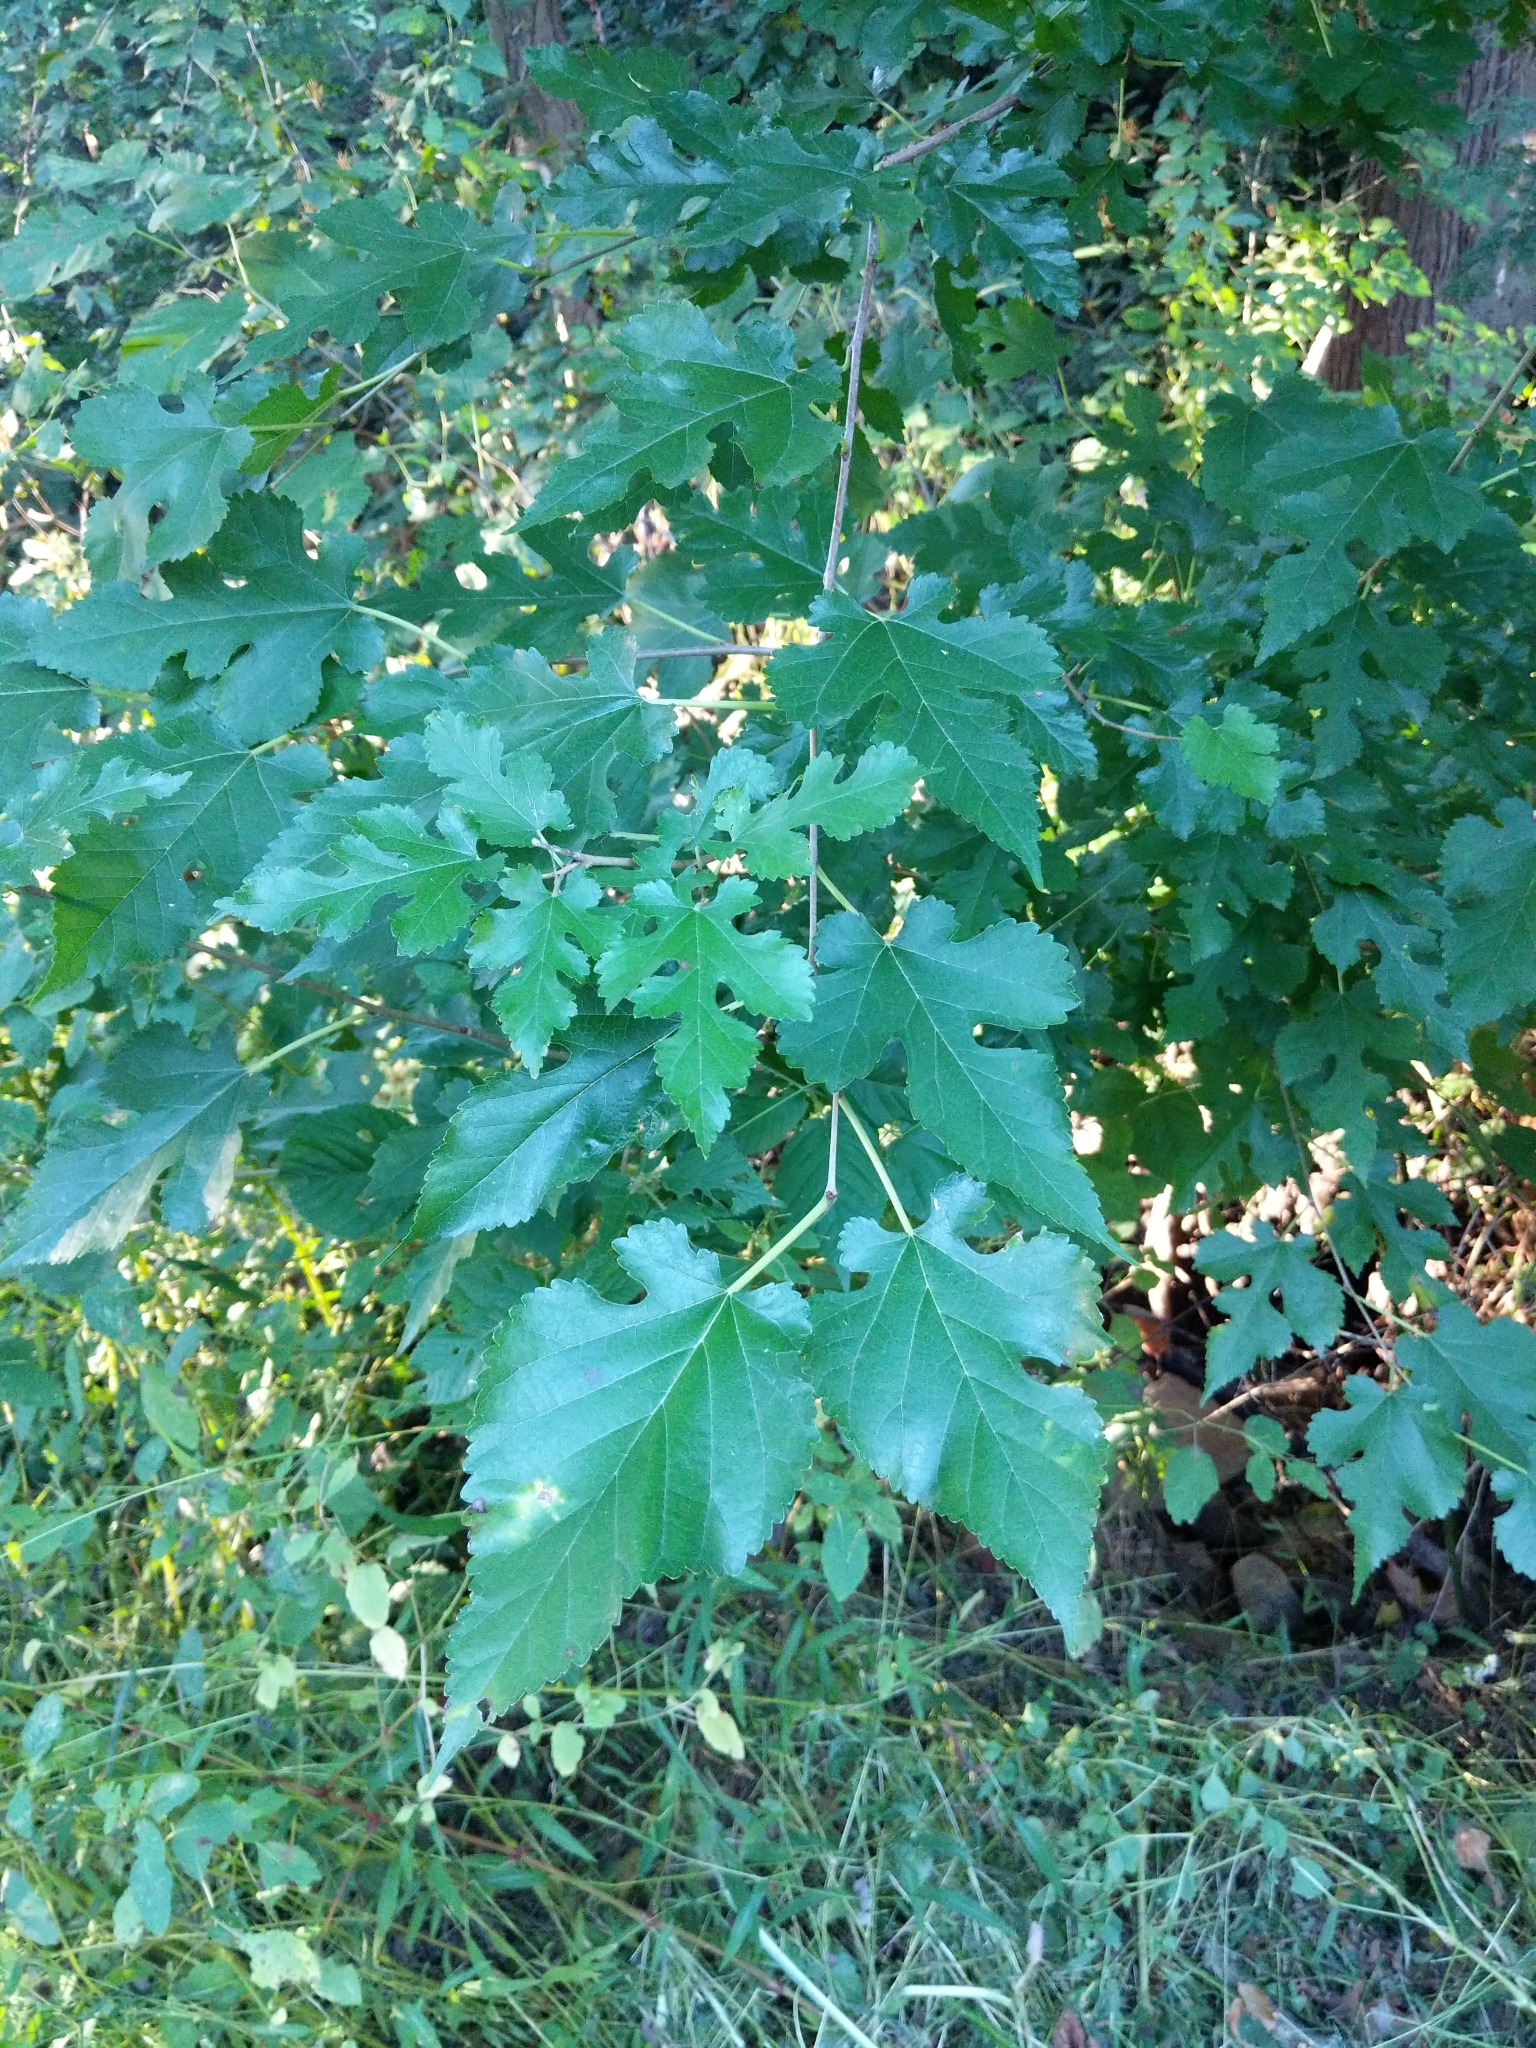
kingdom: Plantae
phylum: Tracheophyta
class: Magnoliopsida
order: Rosales
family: Moraceae
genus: Morus
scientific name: Morus alba
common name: White mulberry
